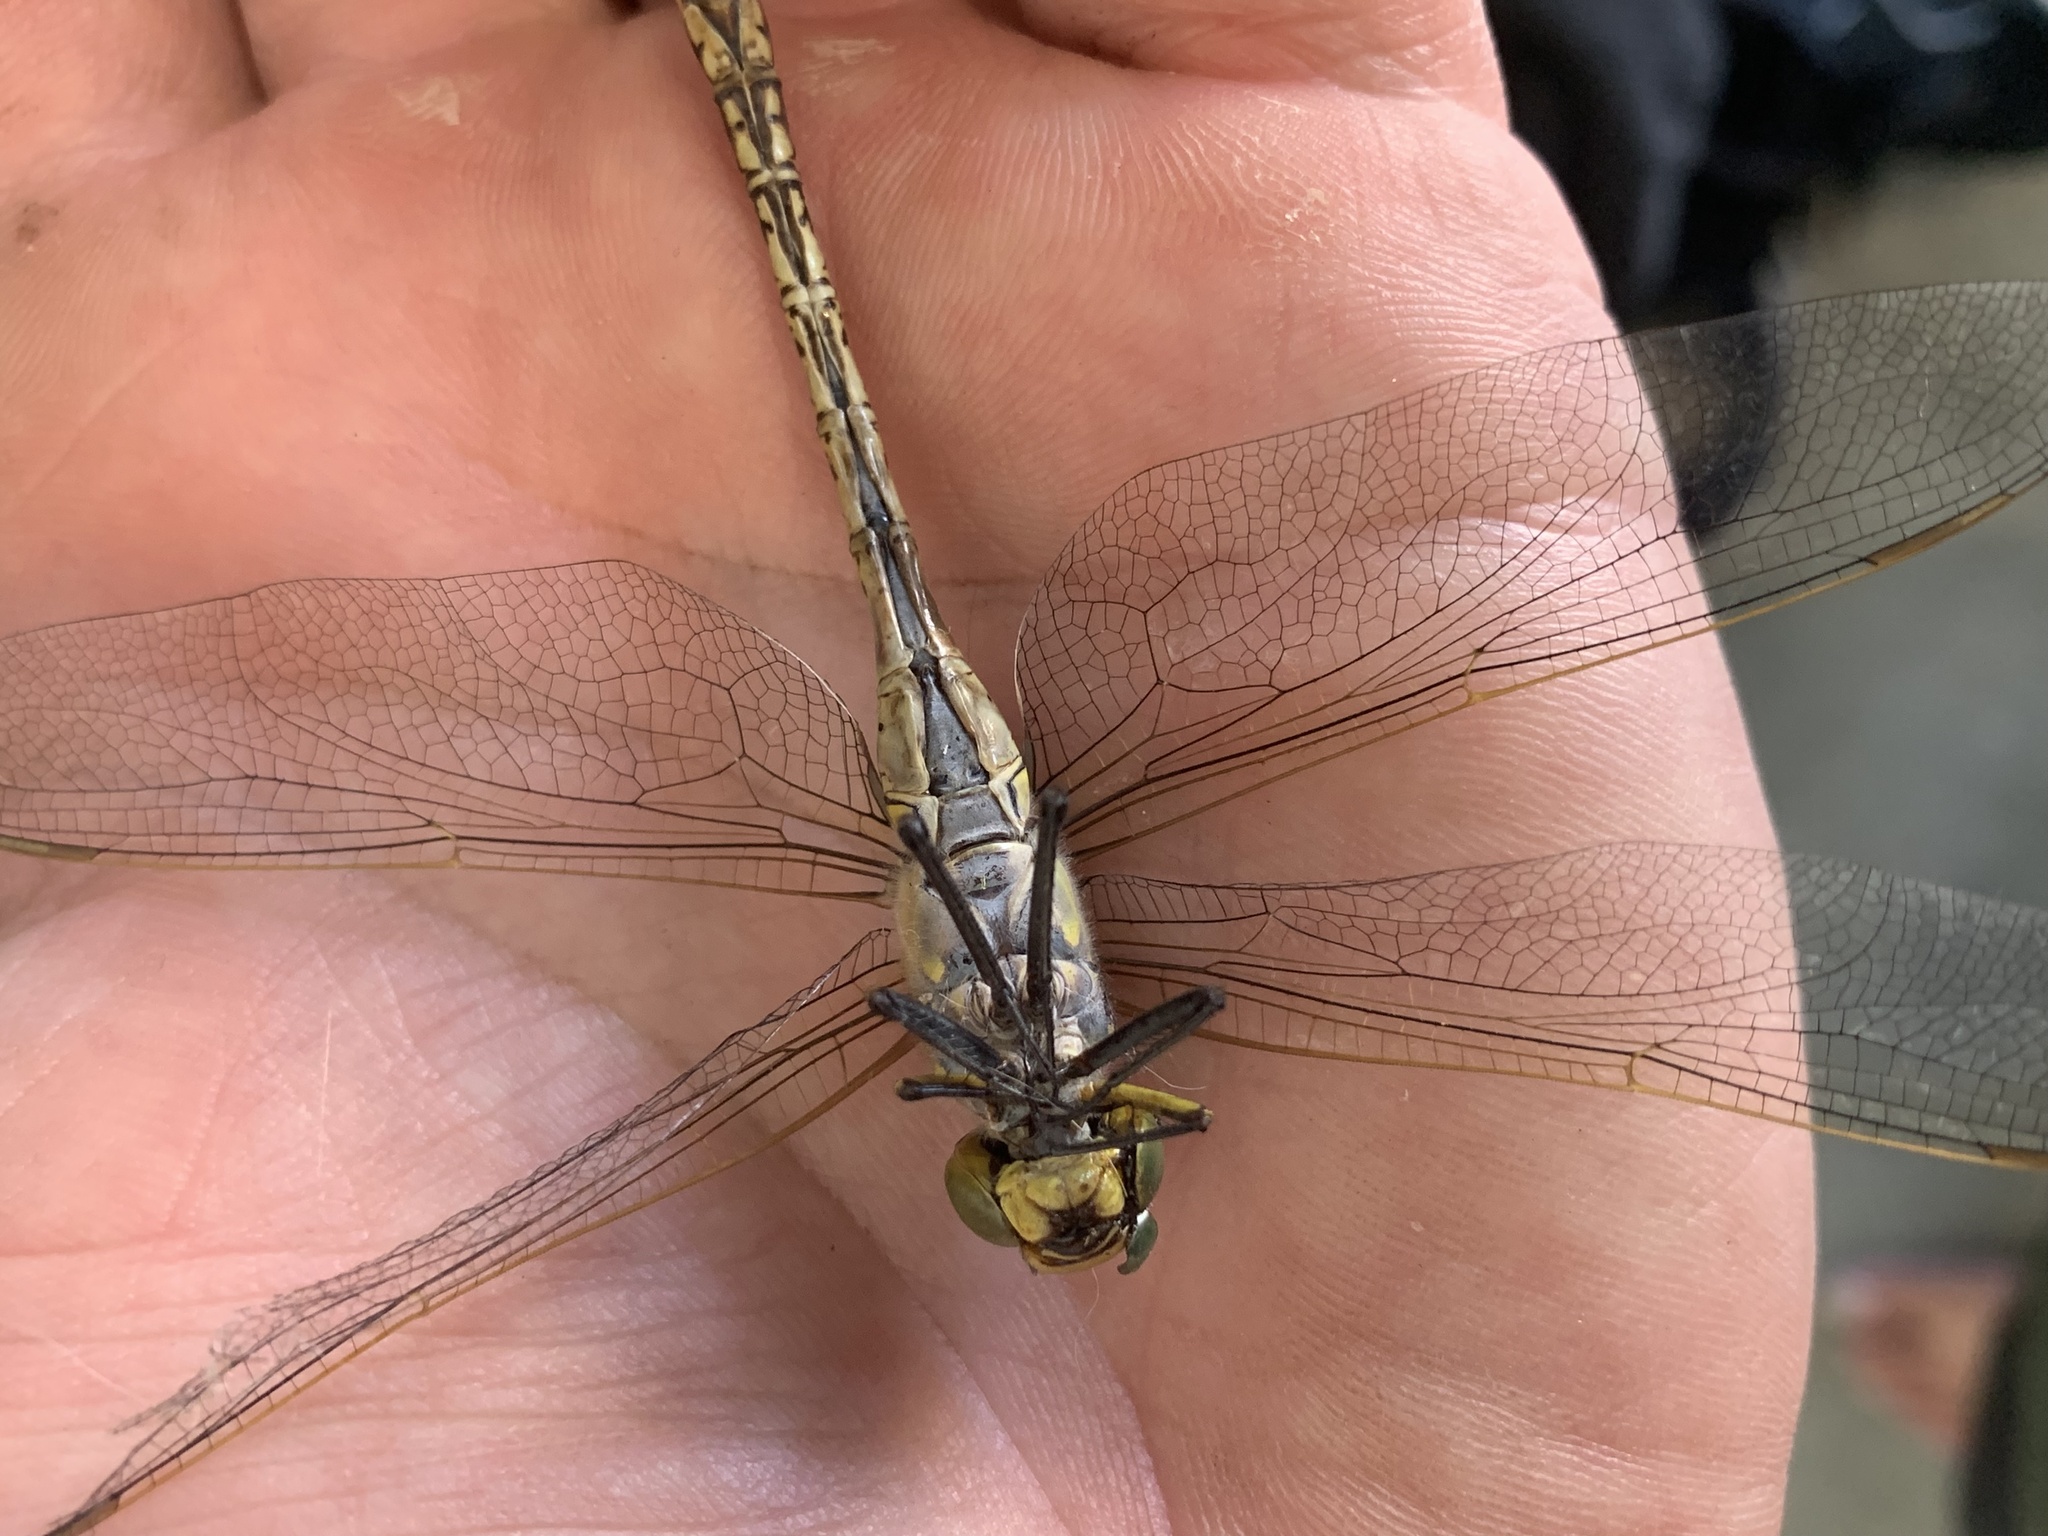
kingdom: Animalia
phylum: Arthropoda
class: Insecta
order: Odonata
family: Aeshnidae
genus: Anax
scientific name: Anax papuensis
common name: Australian emperor
